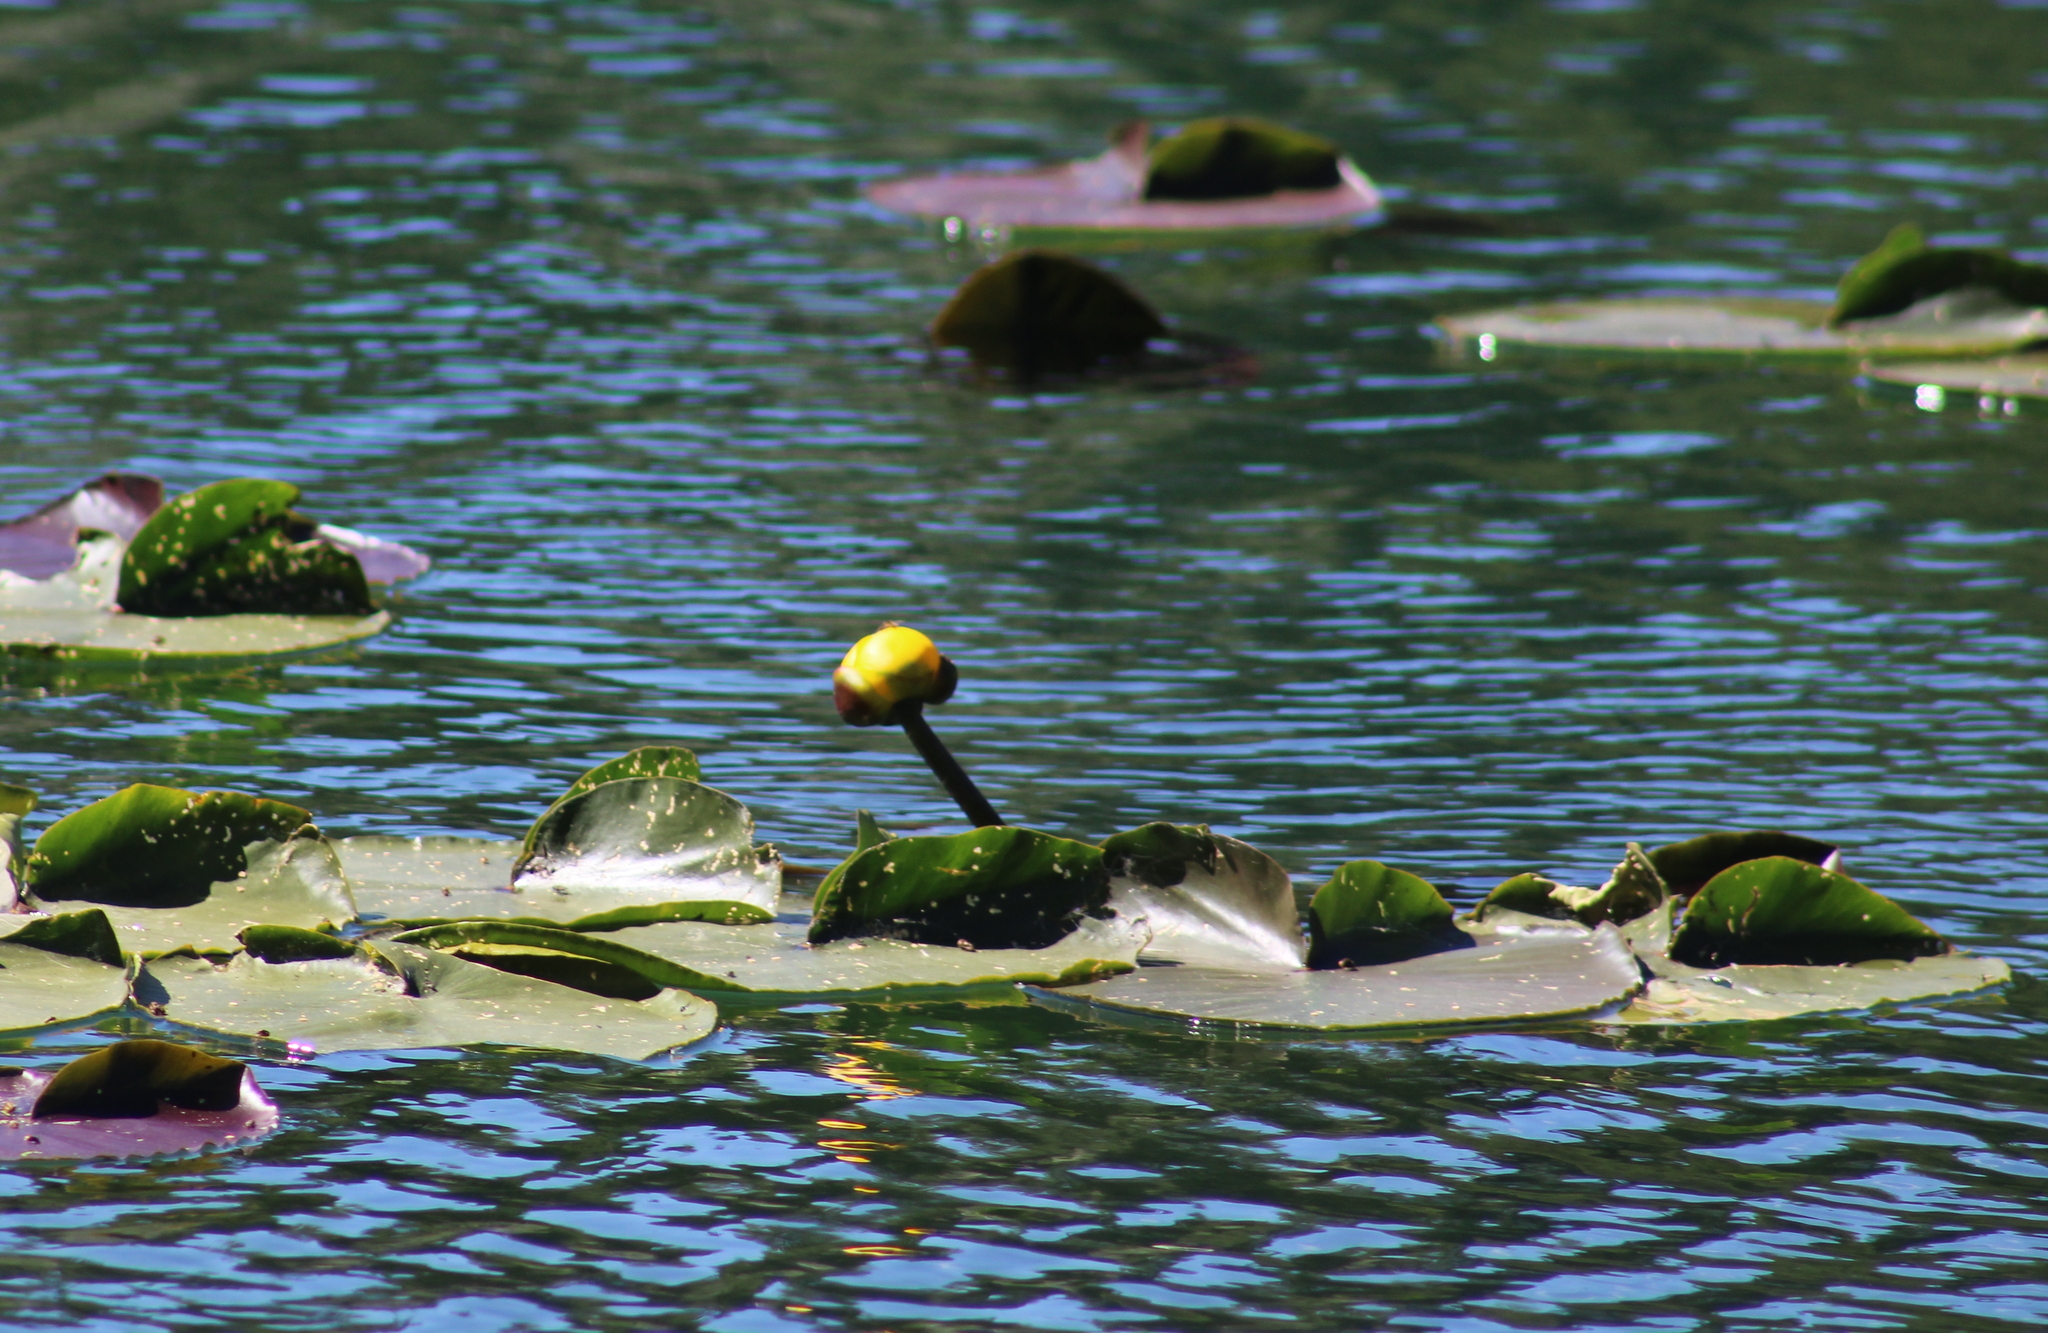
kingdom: Plantae
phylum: Tracheophyta
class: Magnoliopsida
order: Nymphaeales
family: Nymphaeaceae
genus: Nuphar
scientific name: Nuphar polysepala
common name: Rocky mountain cow-lily
